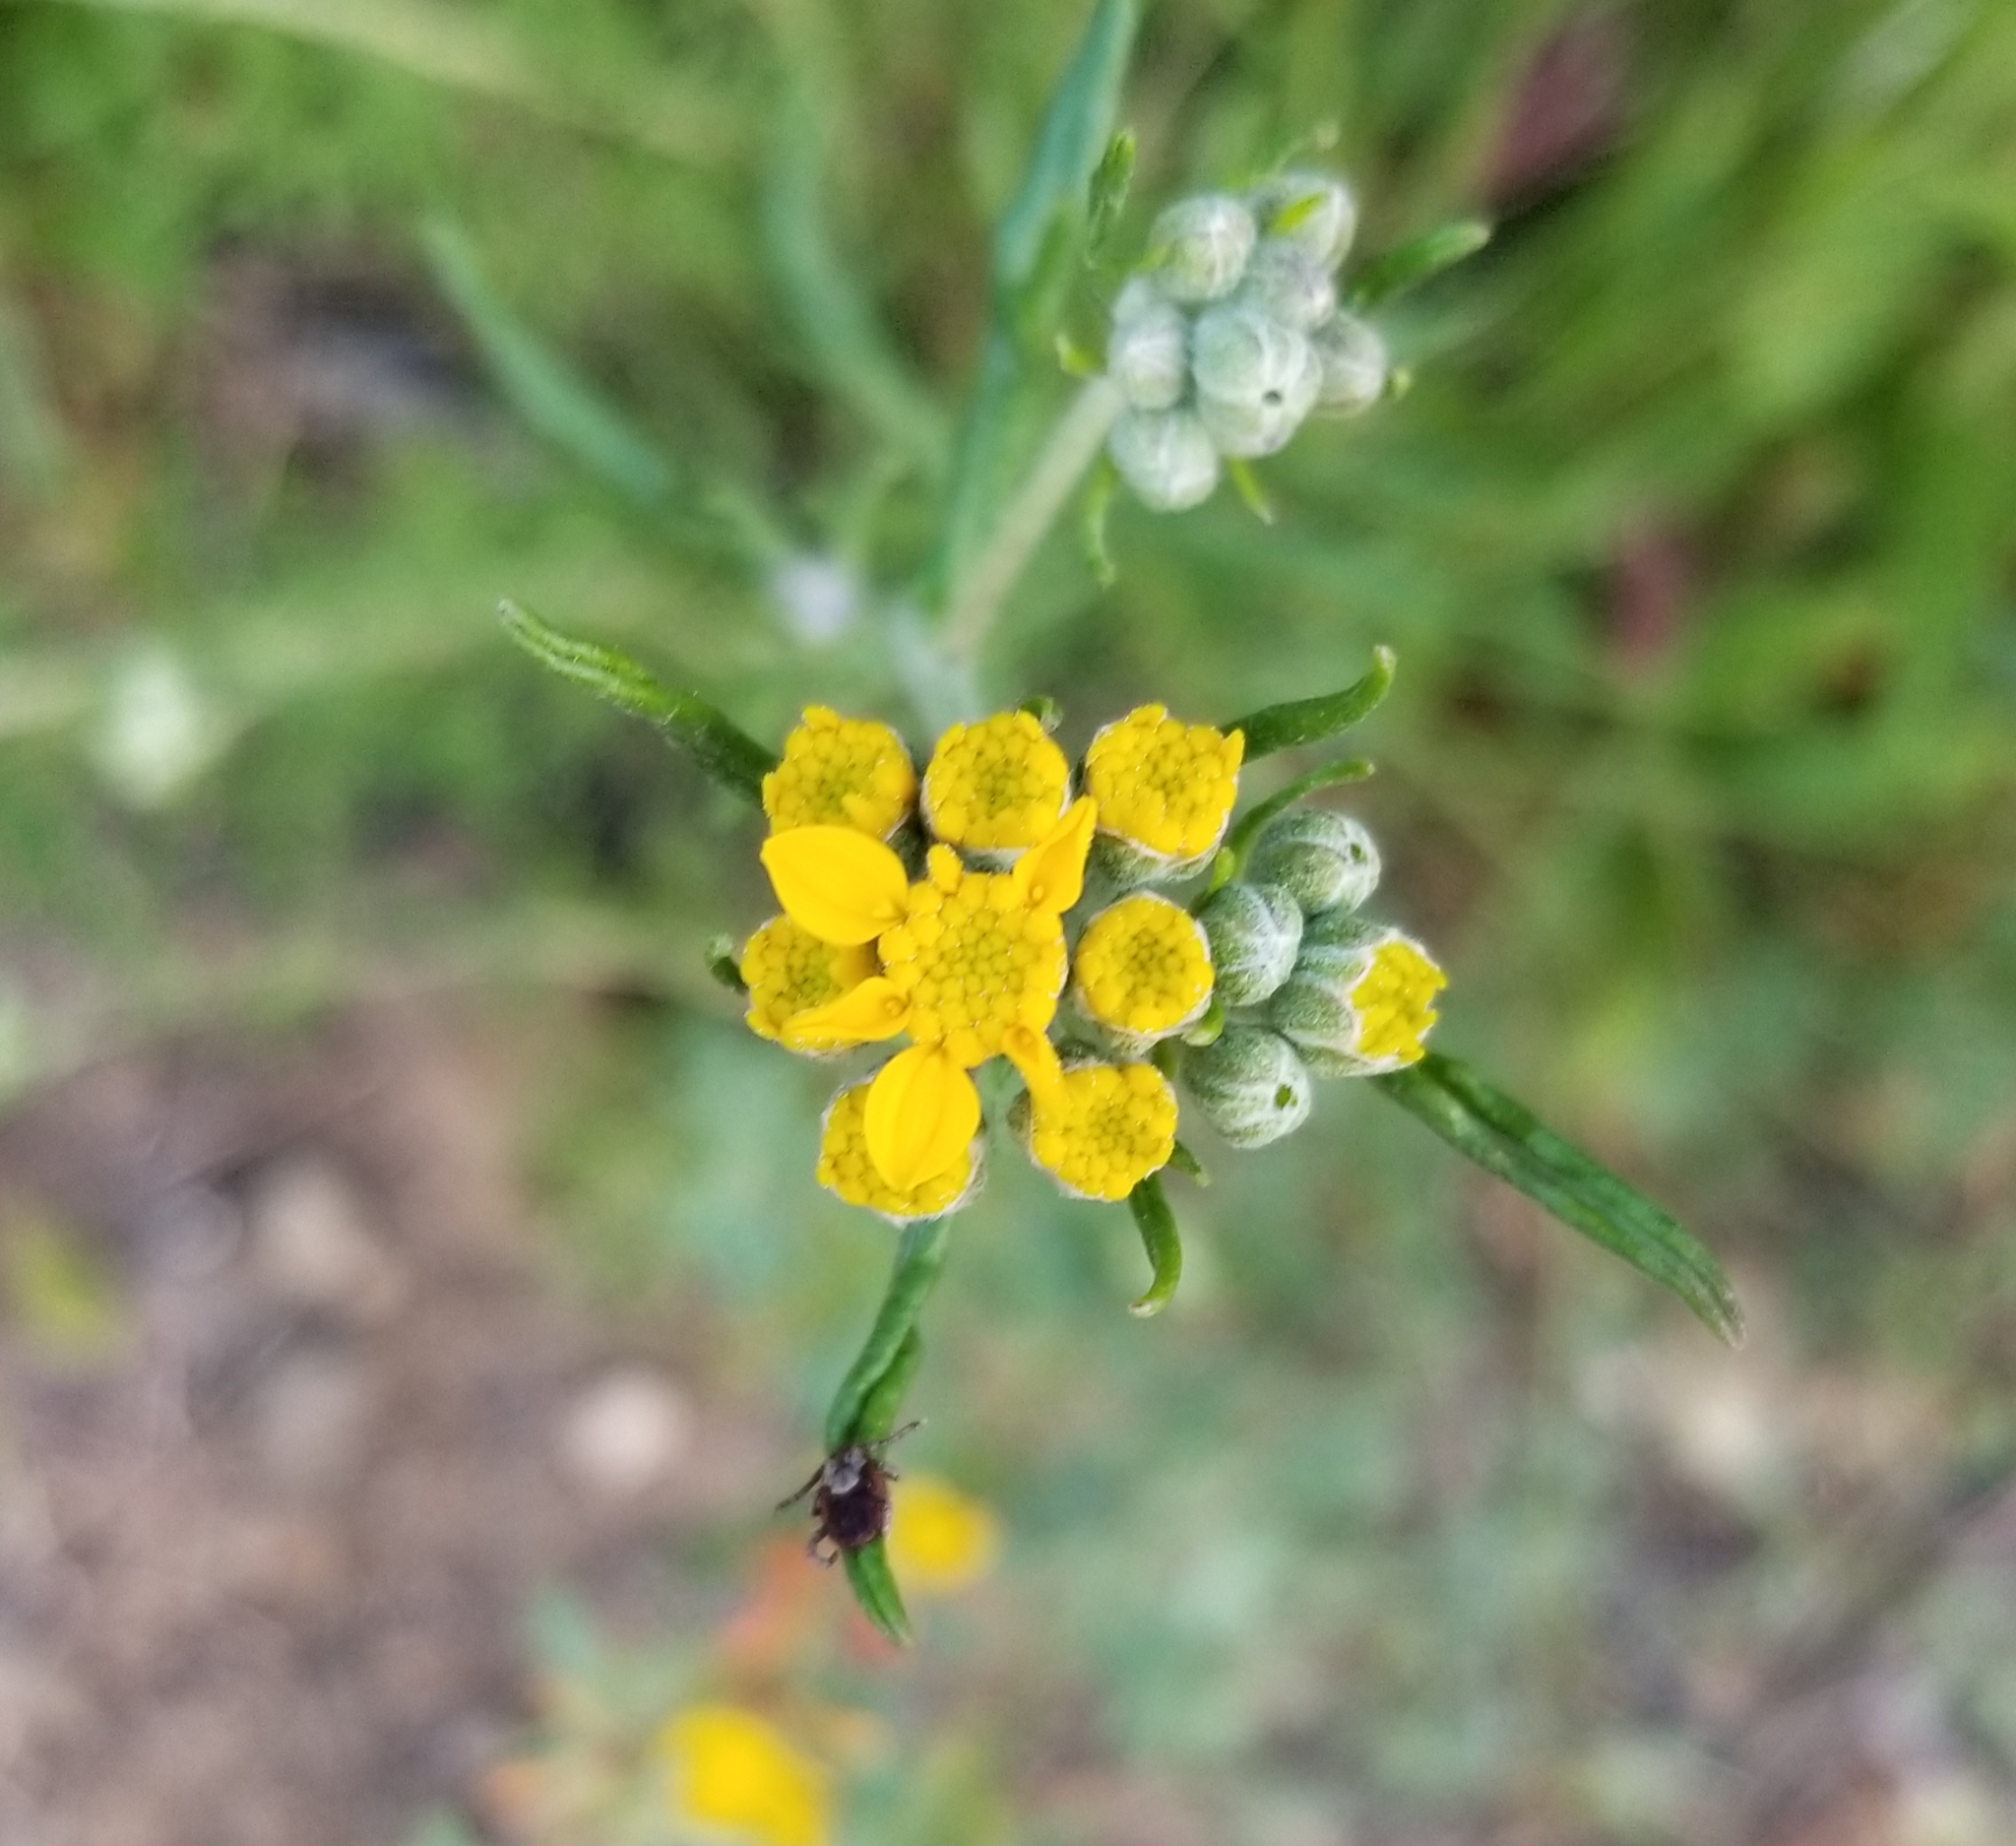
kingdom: Plantae
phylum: Tracheophyta
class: Magnoliopsida
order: Asterales
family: Asteraceae
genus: Eriophyllum
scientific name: Eriophyllum confertiflorum
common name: Golden-yarrow
